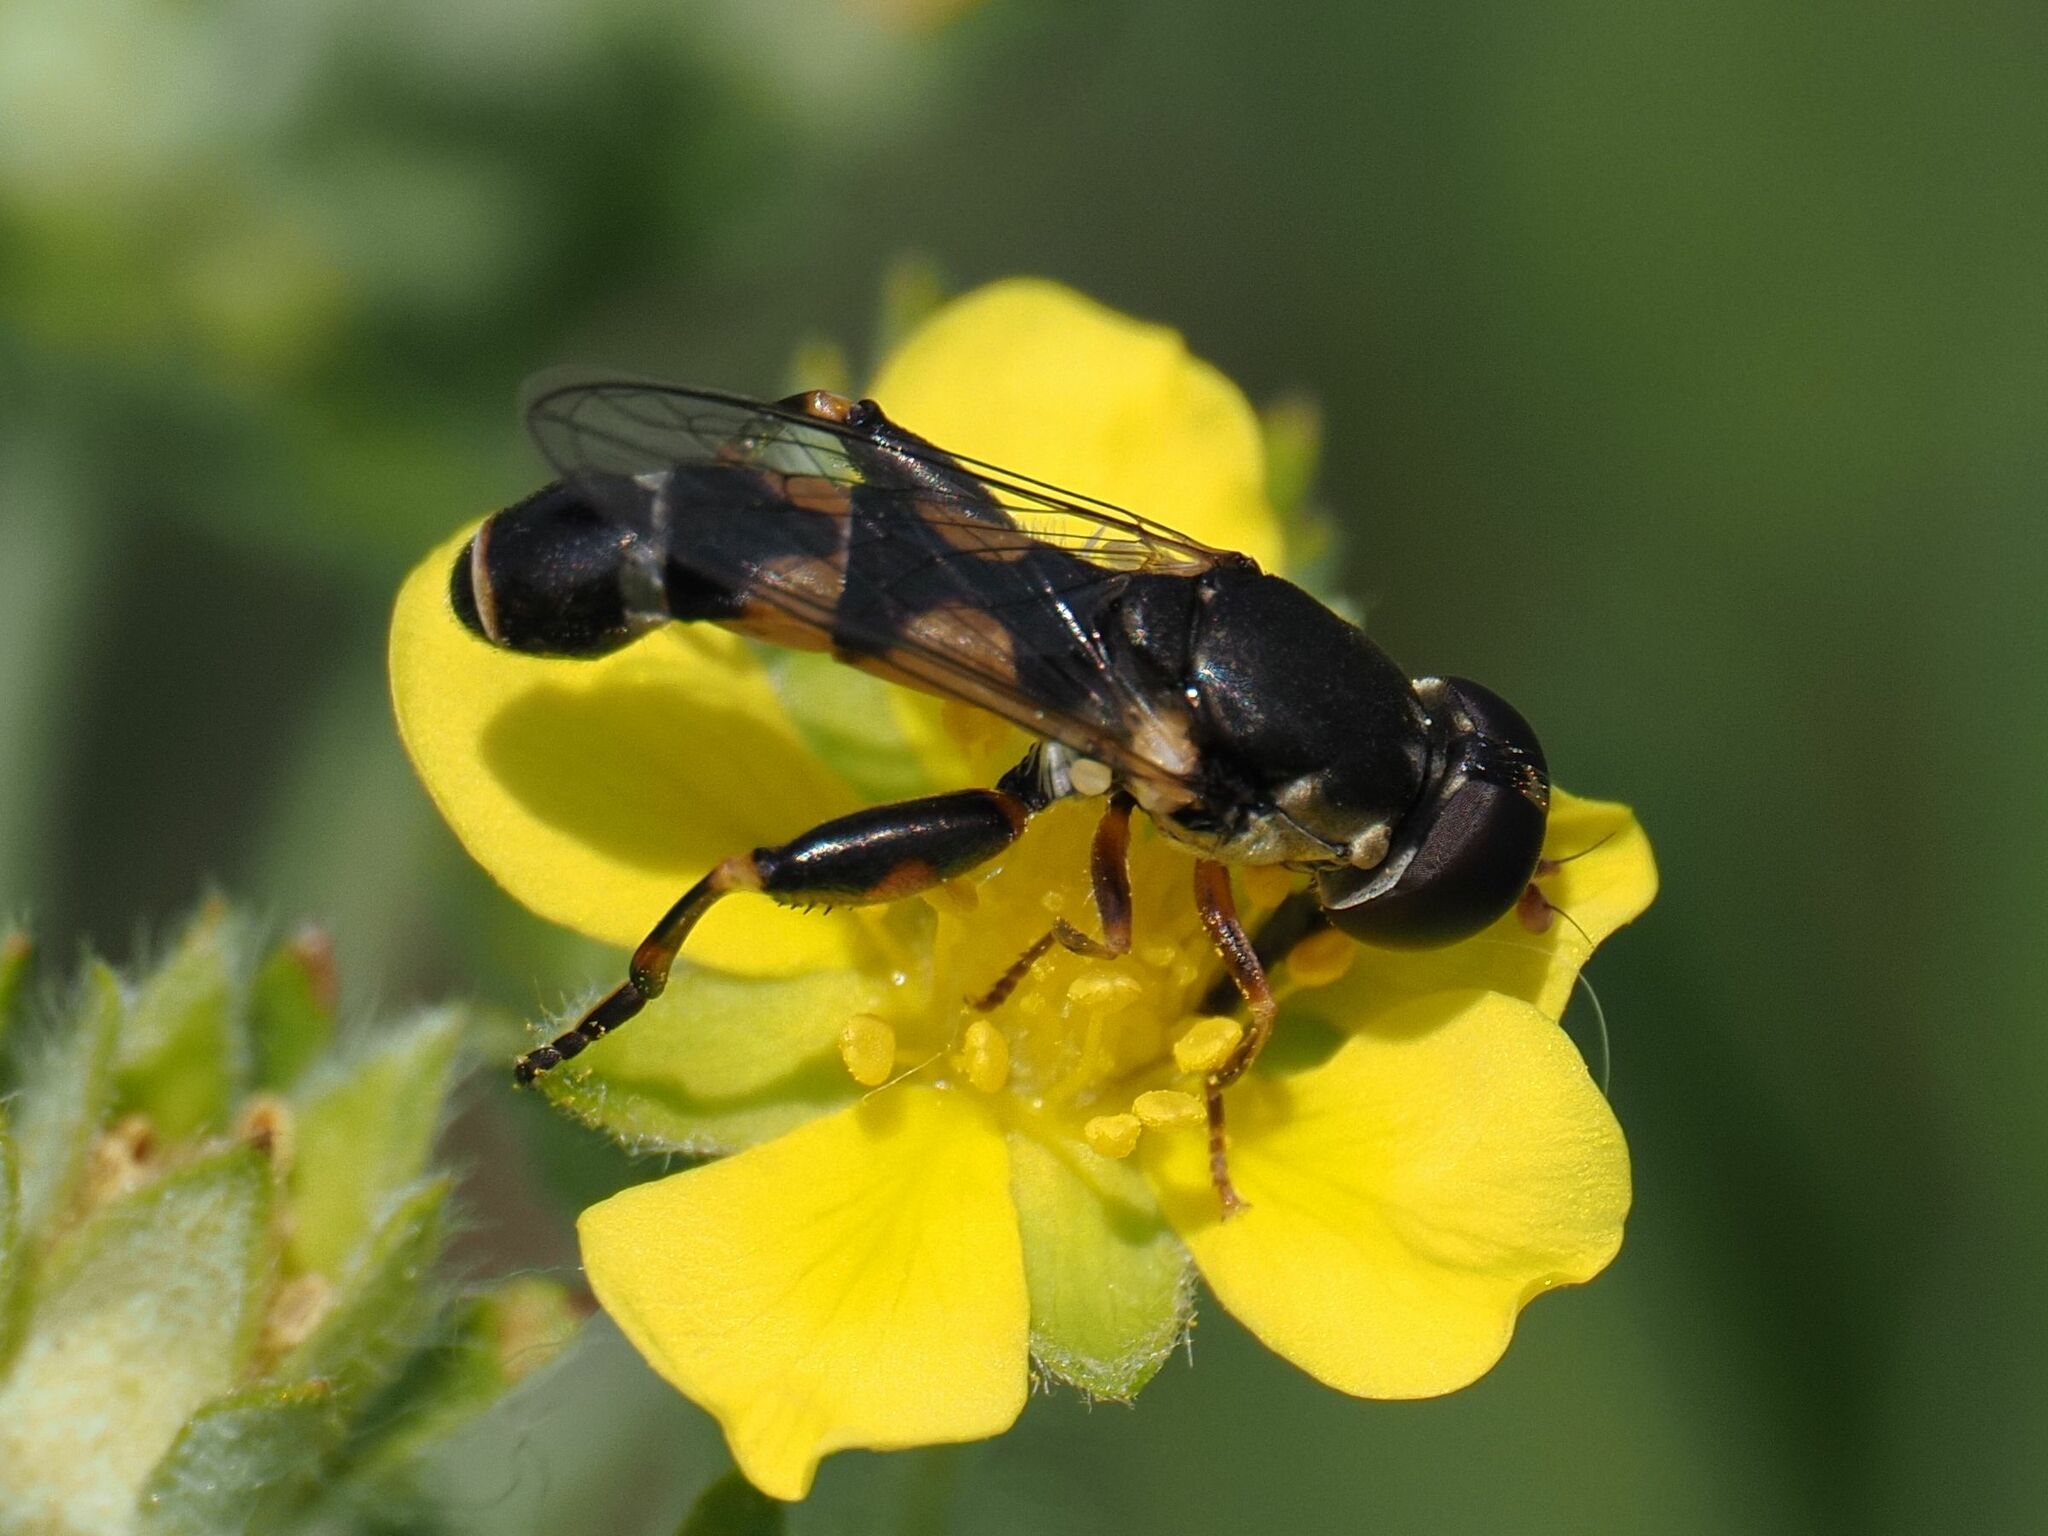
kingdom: Animalia
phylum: Arthropoda
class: Insecta
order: Diptera
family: Syrphidae
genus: Syritta
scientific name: Syritta pipiens
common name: Hover fly
